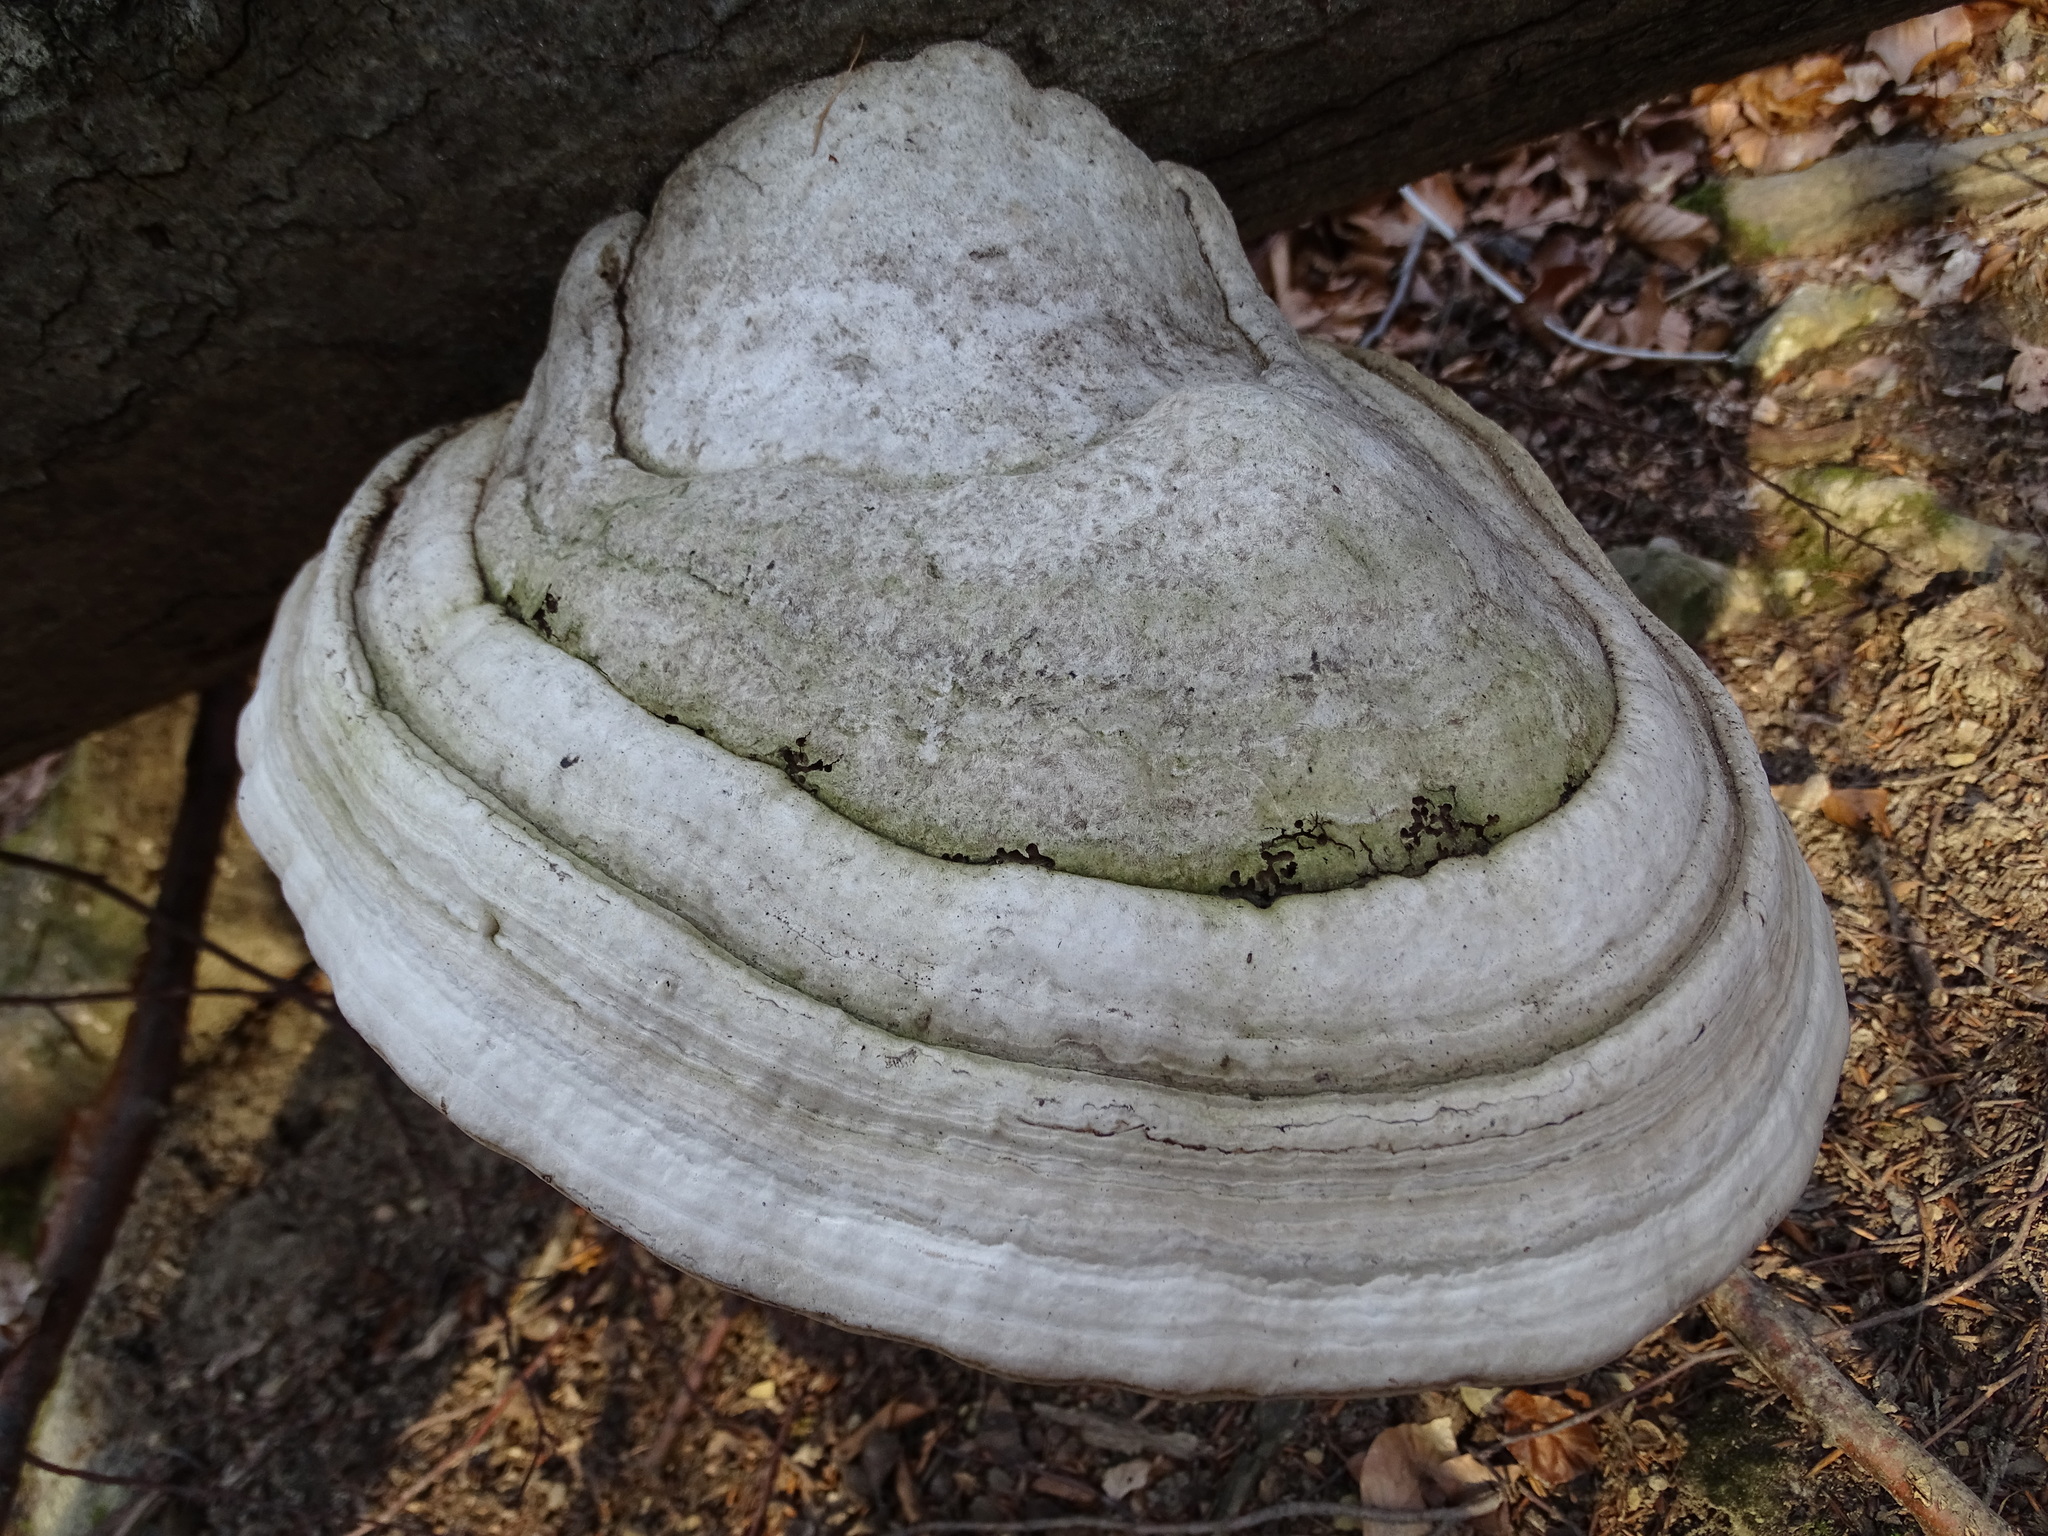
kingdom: Fungi
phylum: Basidiomycota
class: Agaricomycetes
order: Polyporales
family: Polyporaceae
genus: Fomes
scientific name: Fomes fomentarius
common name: Hoof fungus
